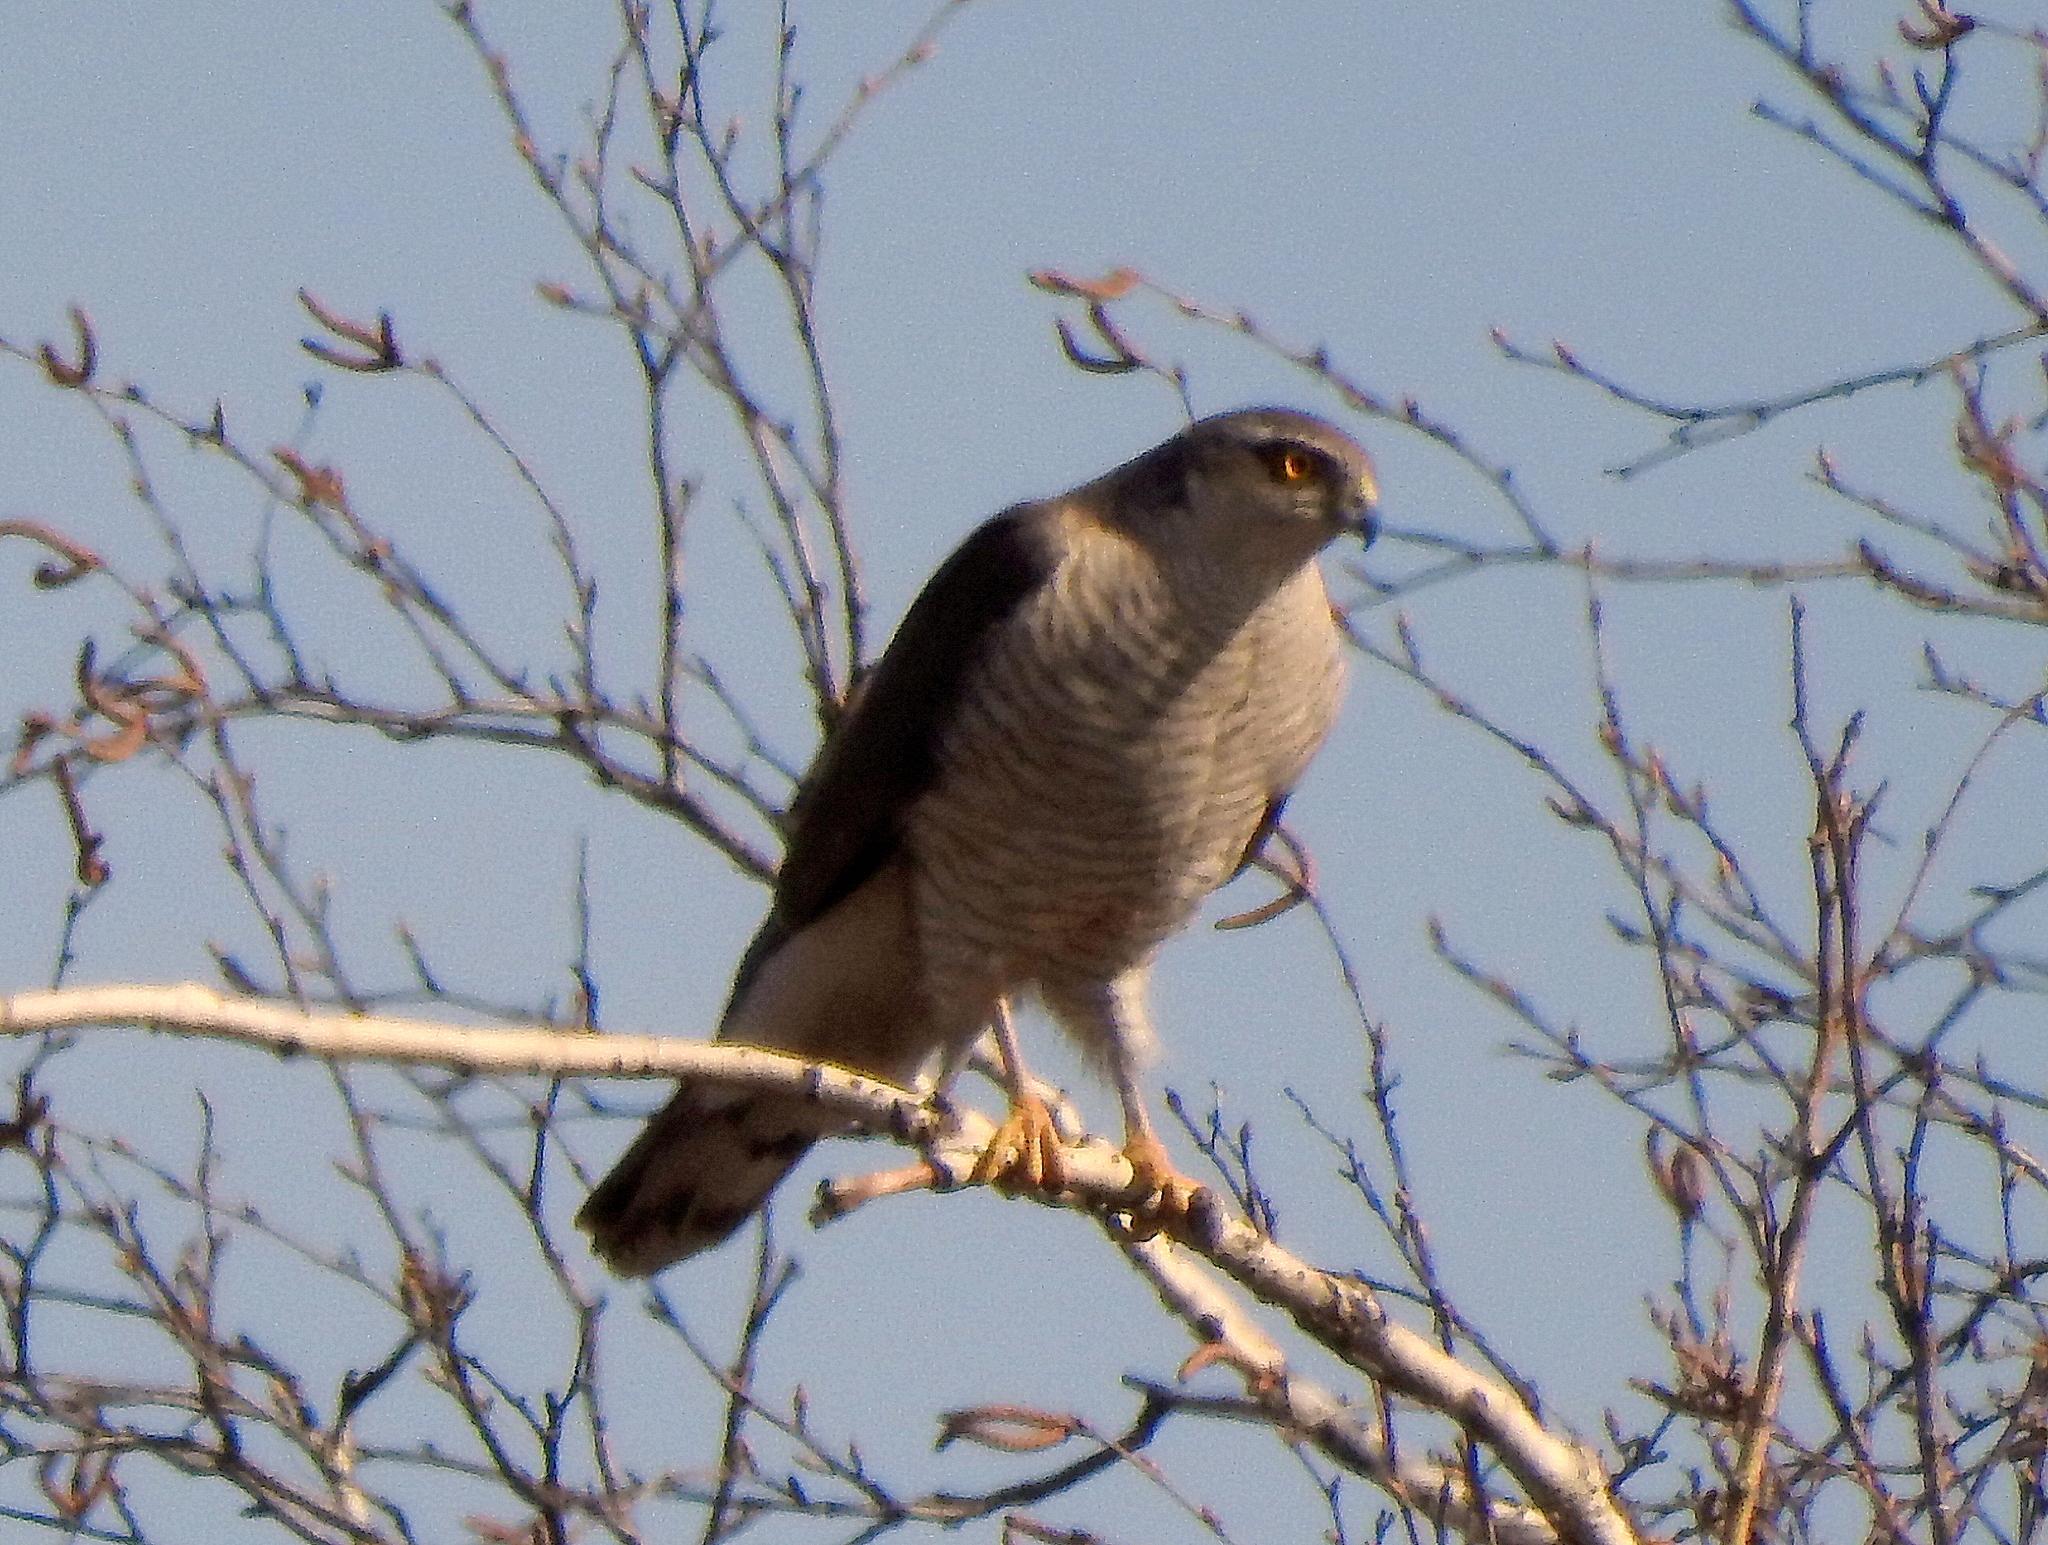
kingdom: Animalia
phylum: Chordata
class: Aves
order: Accipitriformes
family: Accipitridae
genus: Accipiter
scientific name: Accipiter nisus
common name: Eurasian sparrowhawk
